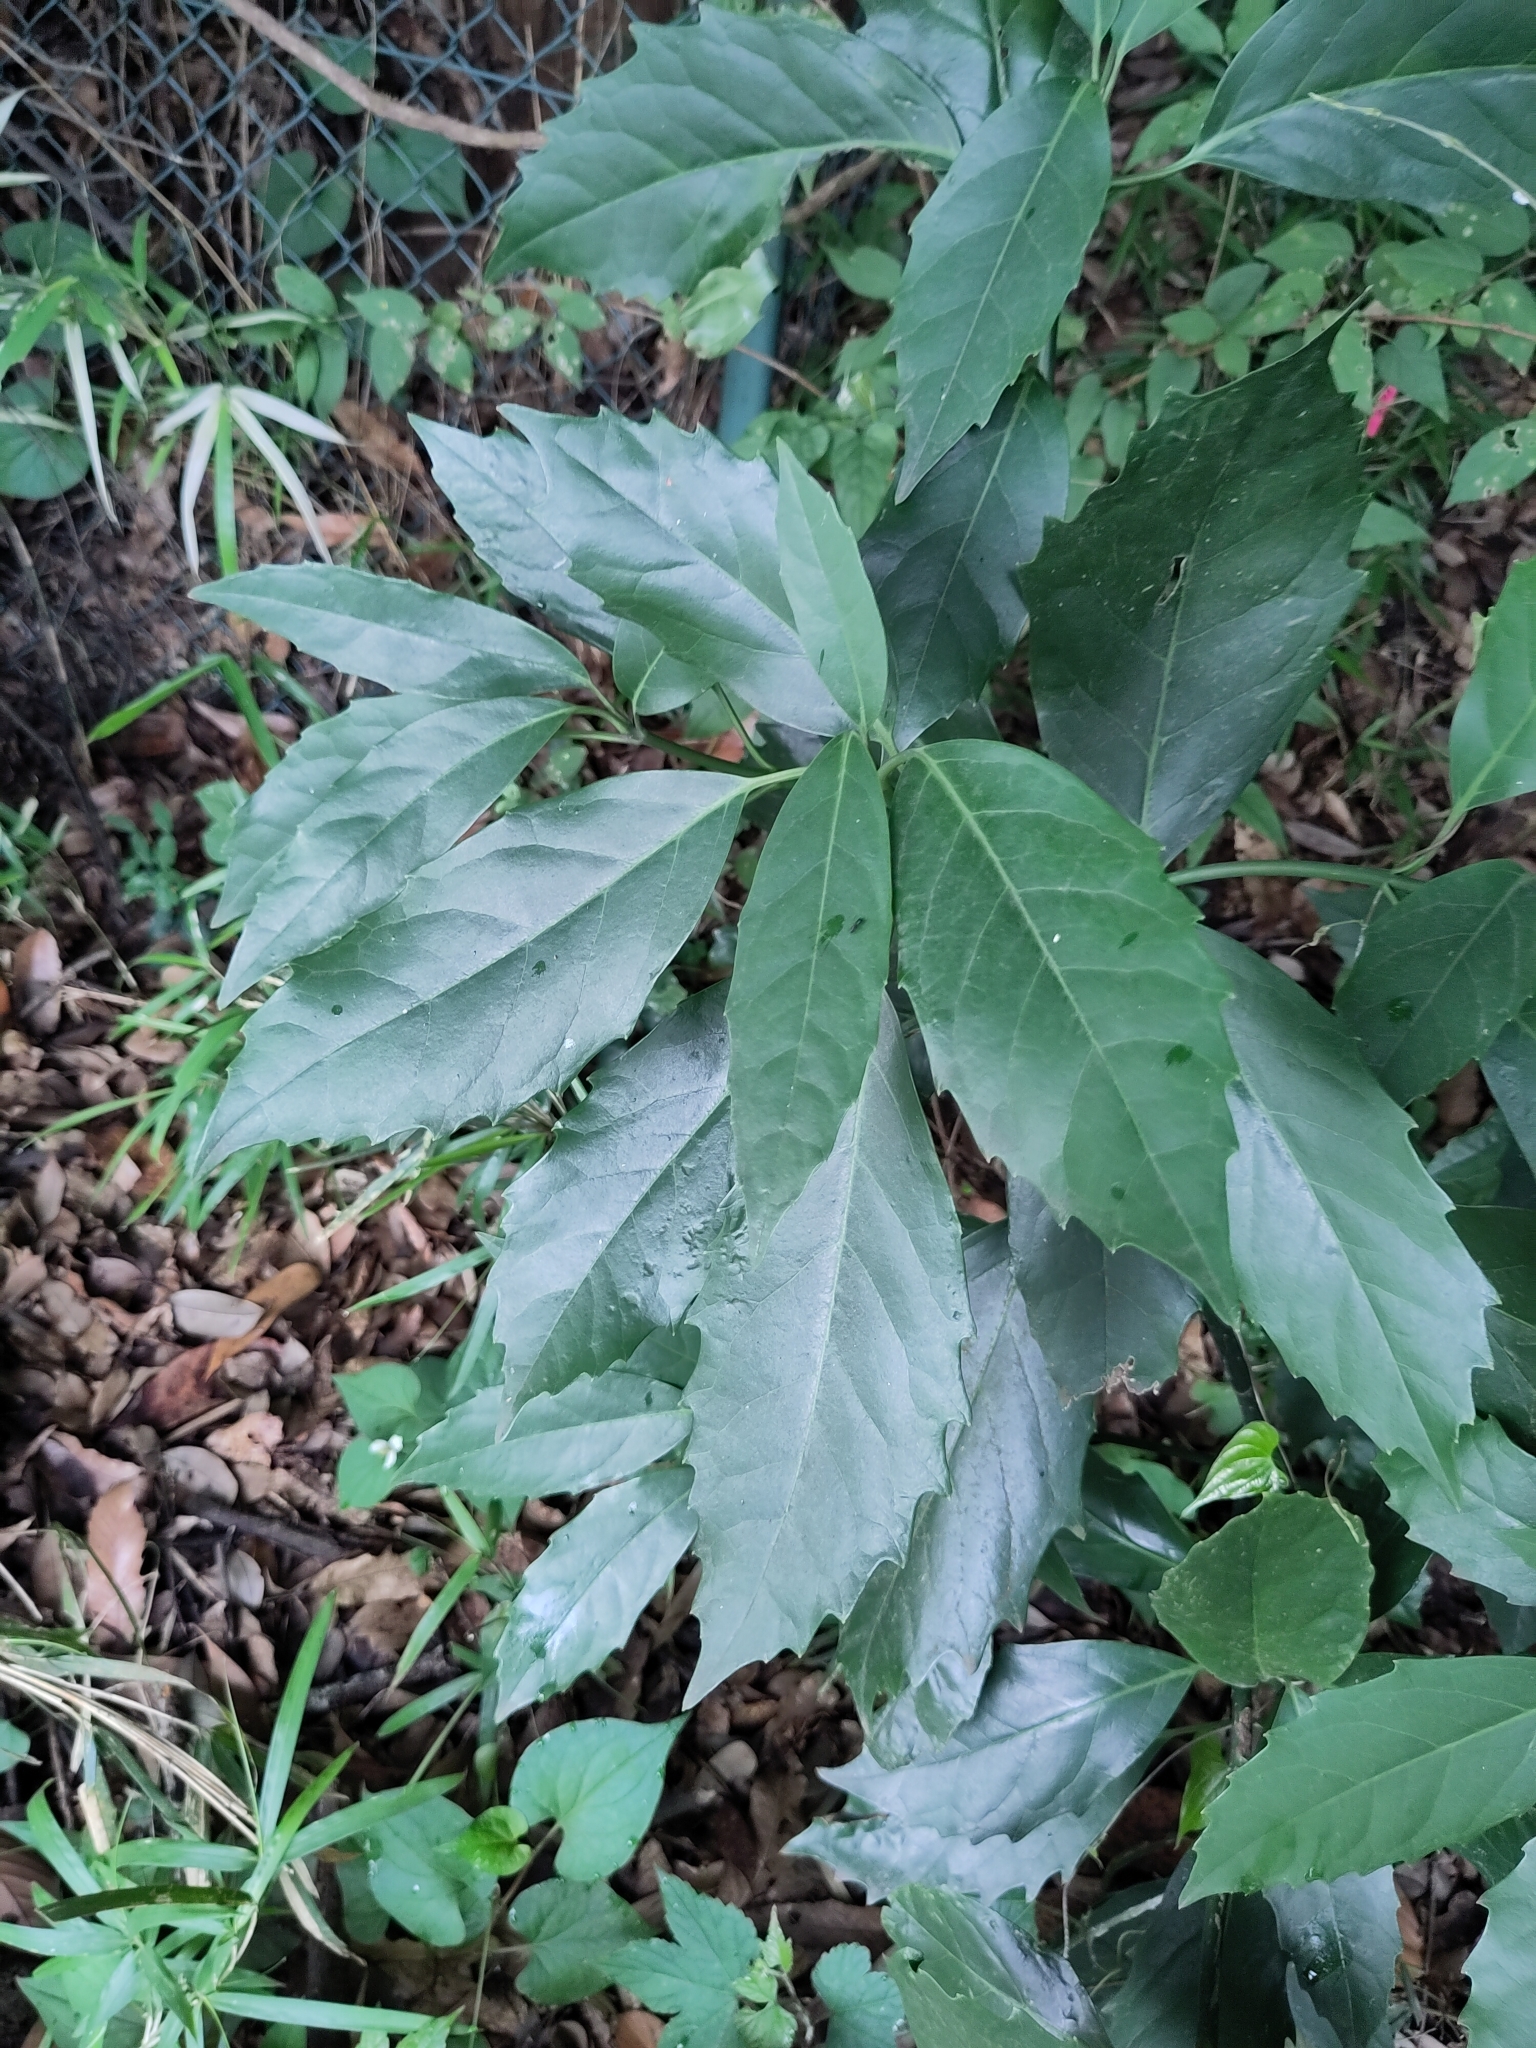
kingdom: Plantae
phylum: Tracheophyta
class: Magnoliopsida
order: Garryales
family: Garryaceae
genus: Aucuba
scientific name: Aucuba japonica
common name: Spotted-laurel
